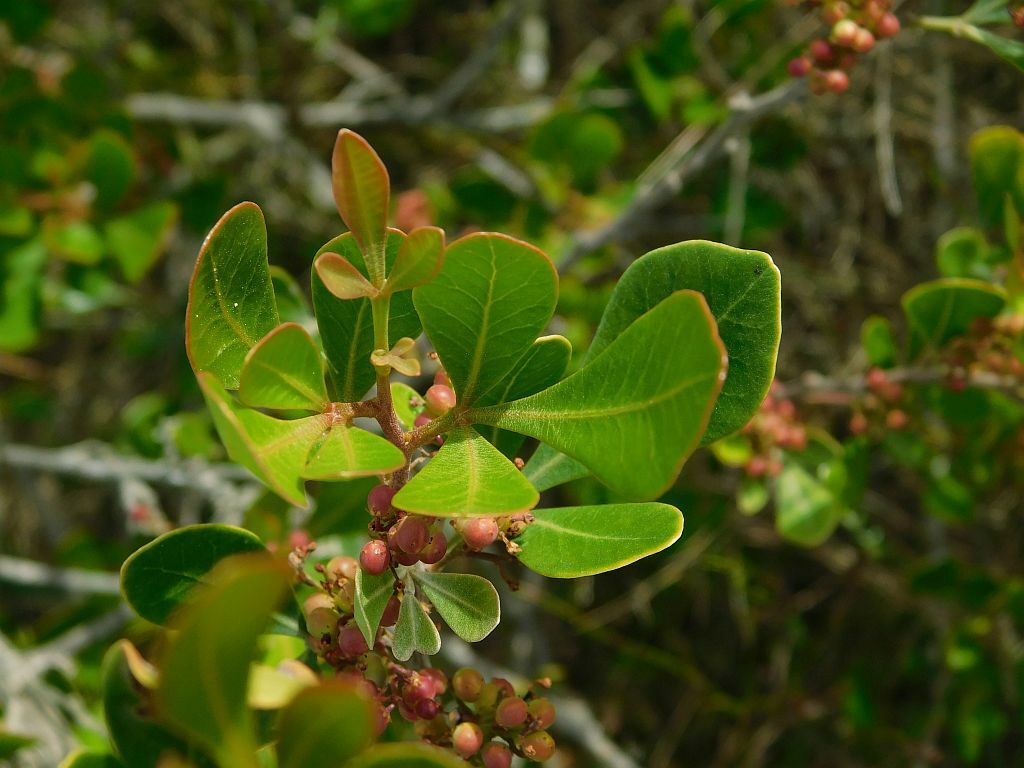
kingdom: Plantae
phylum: Tracheophyta
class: Magnoliopsida
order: Sapindales
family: Anacardiaceae
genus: Searsia
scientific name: Searsia lucida
